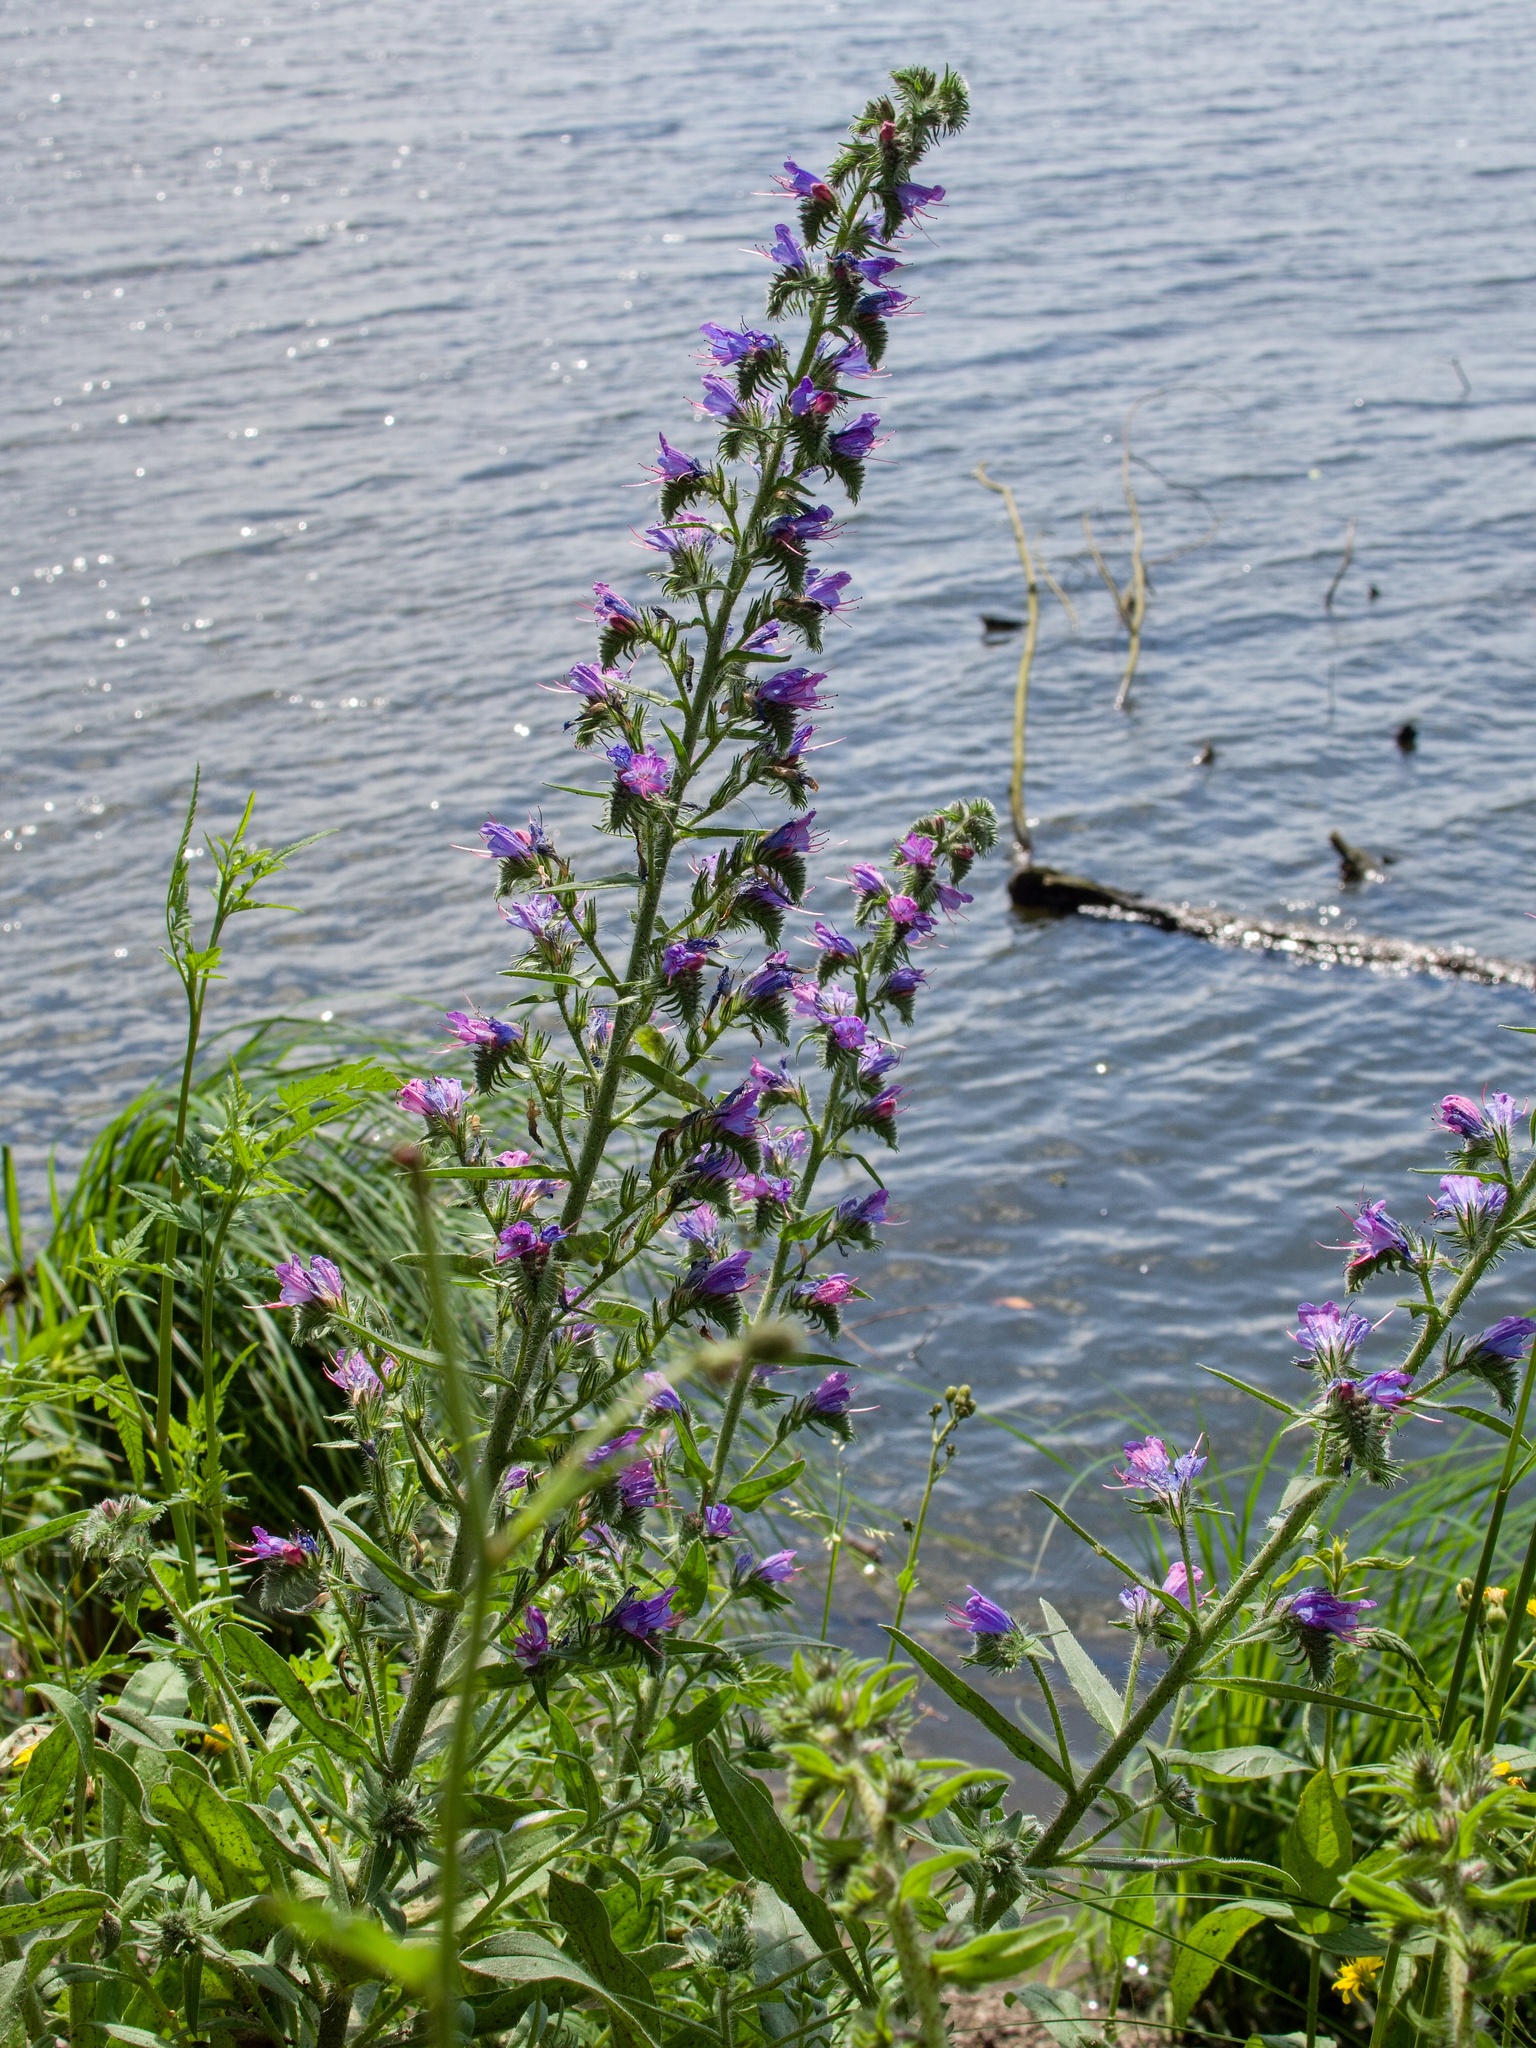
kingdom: Plantae
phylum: Tracheophyta
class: Magnoliopsida
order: Boraginales
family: Boraginaceae
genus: Echium
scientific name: Echium vulgare
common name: Common viper's bugloss
